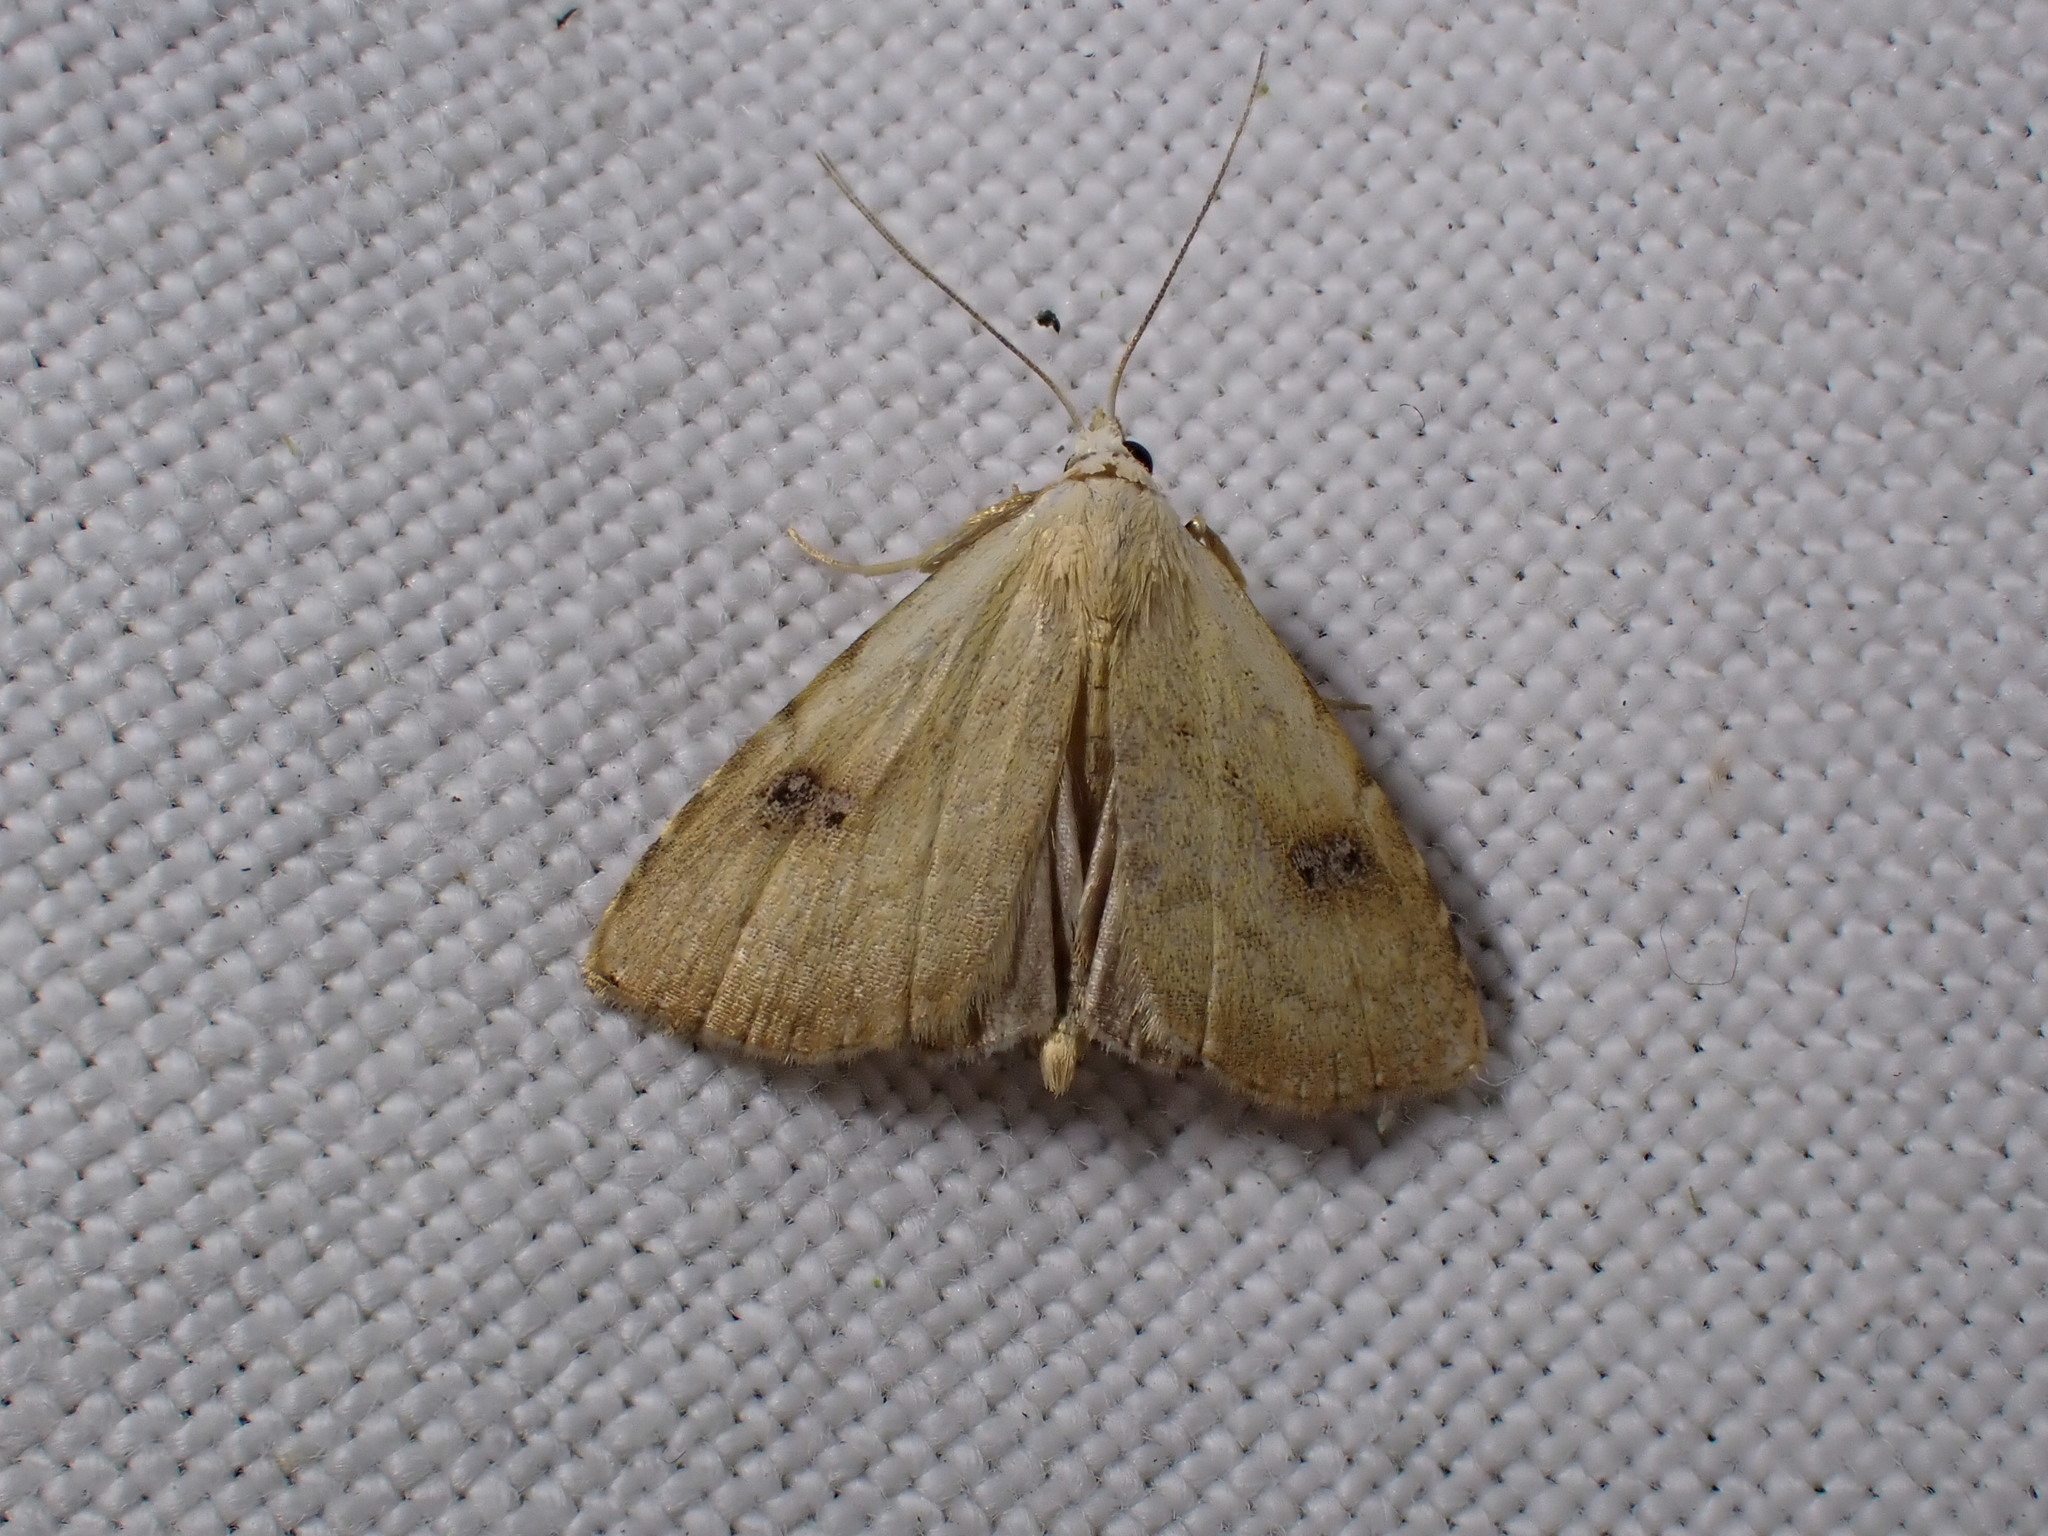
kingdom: Animalia
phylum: Arthropoda
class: Insecta
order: Lepidoptera
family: Erebidae
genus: Rivula
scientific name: Rivula sericealis
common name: Straw dot
